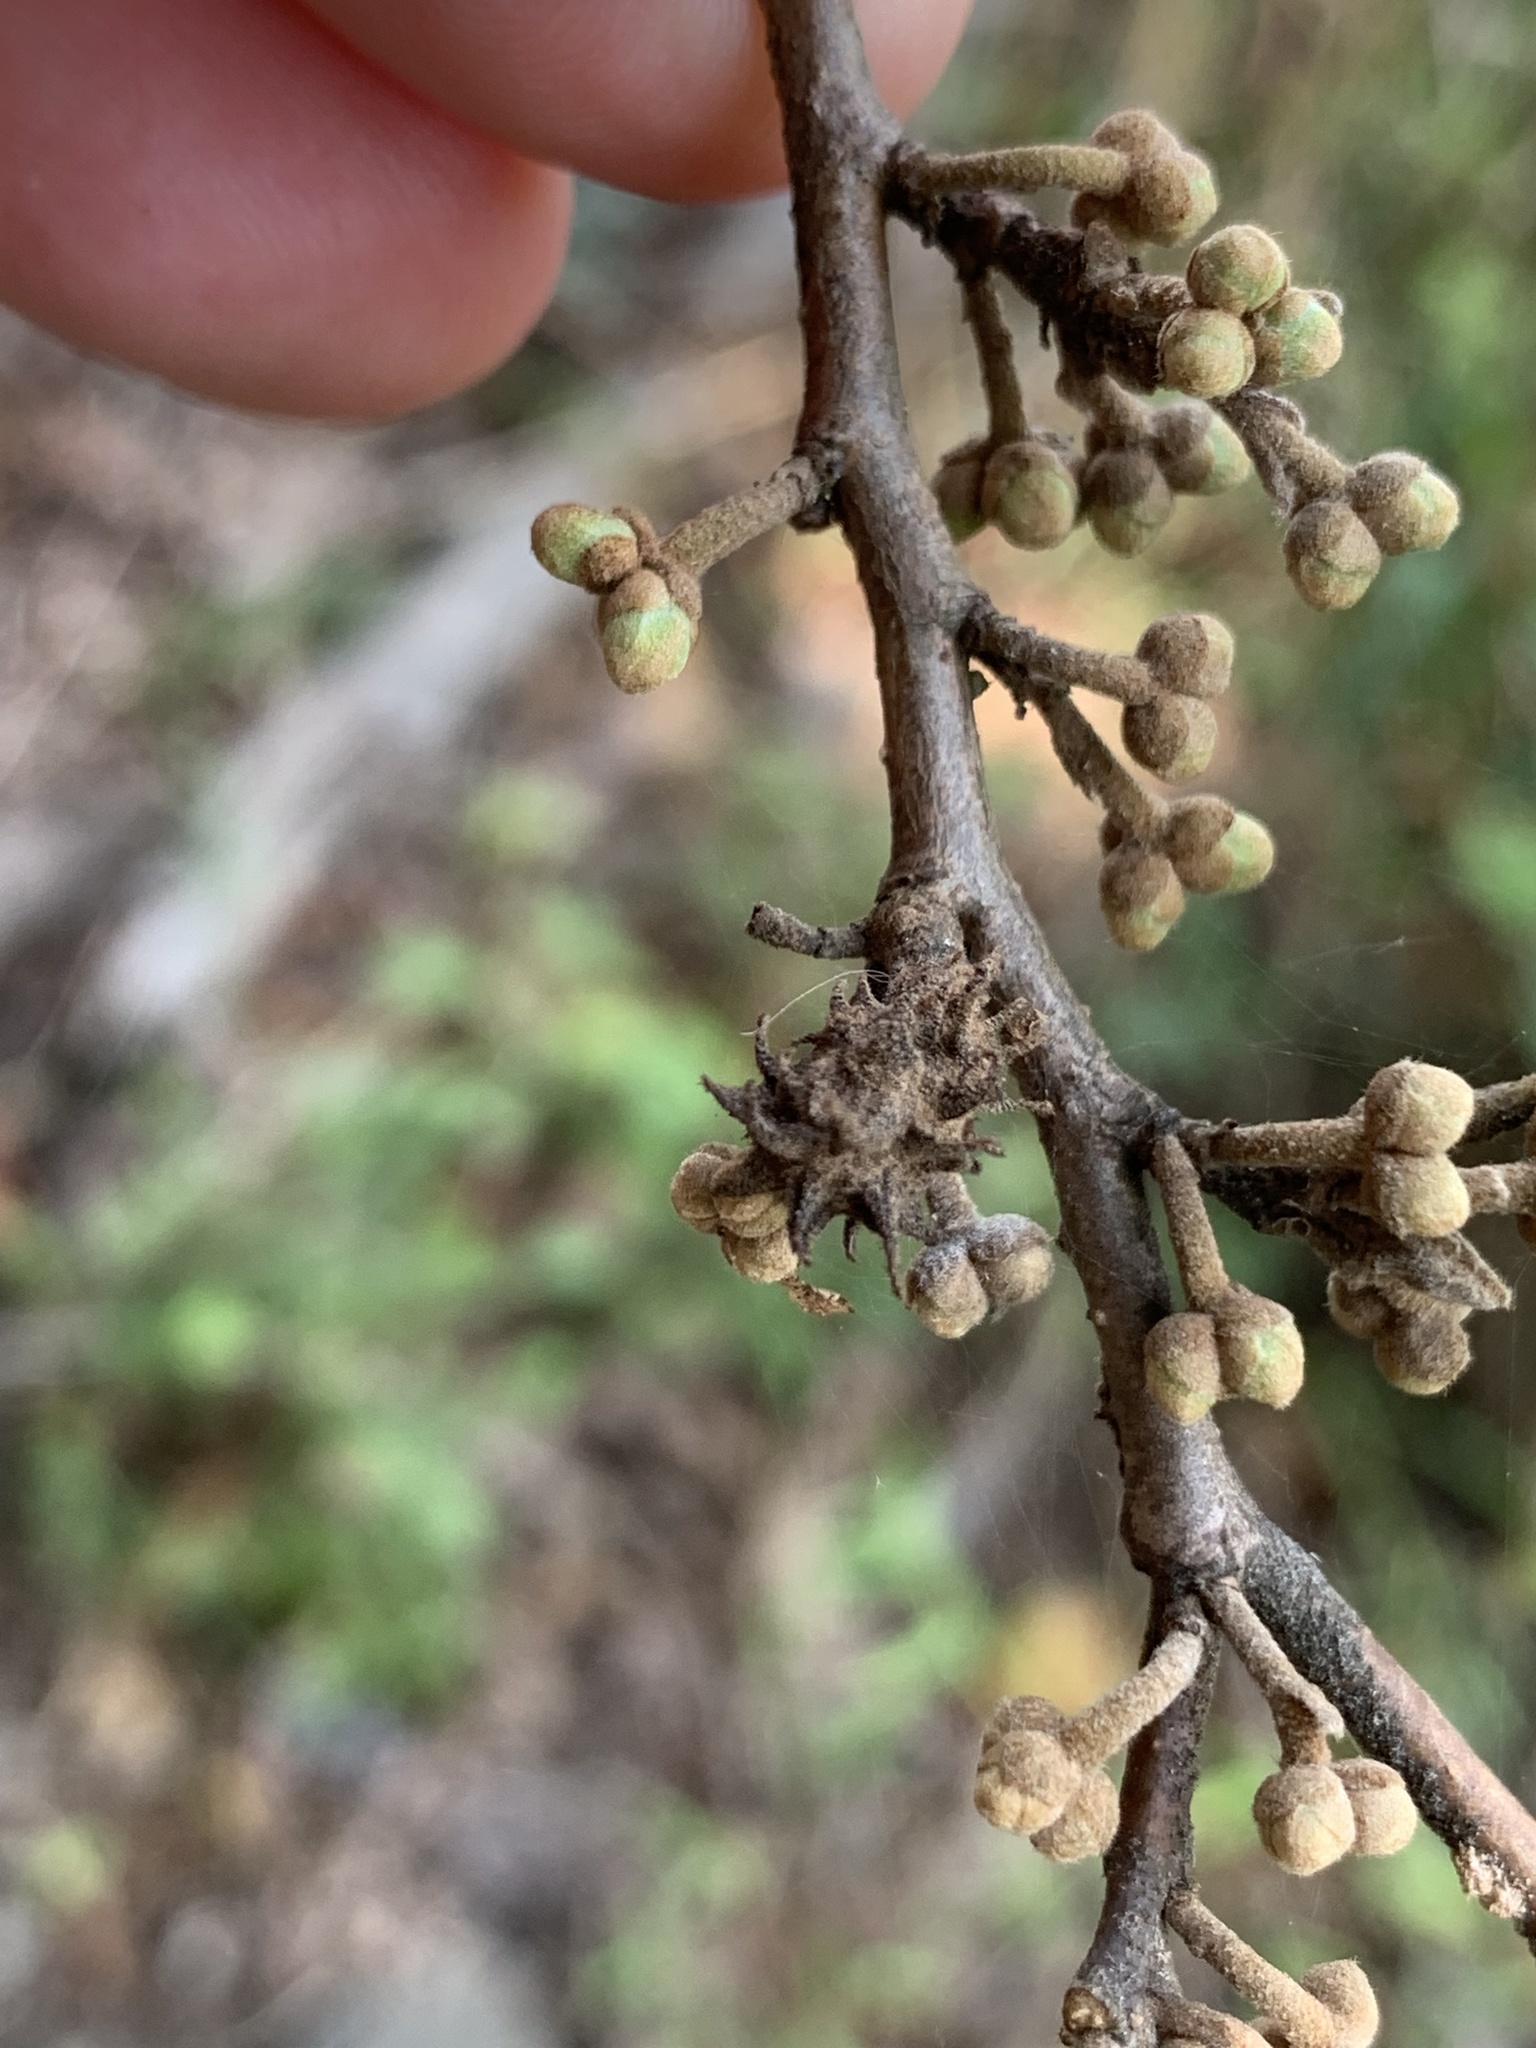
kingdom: Animalia
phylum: Arthropoda
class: Insecta
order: Hemiptera
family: Aphididae
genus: Hamamelistes
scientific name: Hamamelistes spinosus
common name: Witch hazel gall aphid
